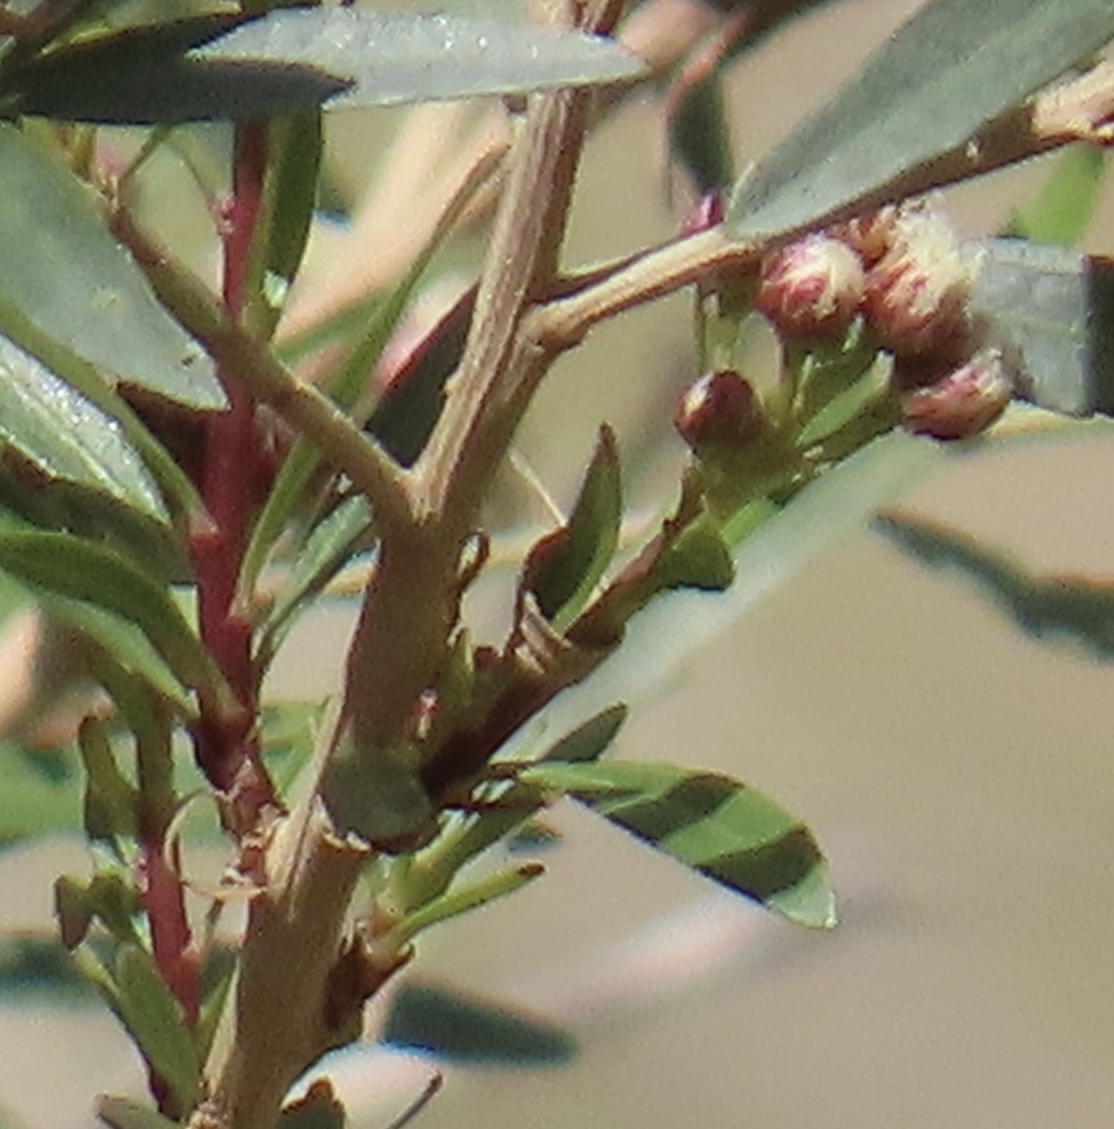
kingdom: Plantae
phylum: Tracheophyta
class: Magnoliopsida
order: Asterales
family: Asteraceae
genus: Baccharis
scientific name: Baccharis salicifolia
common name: Sticky baccharis
